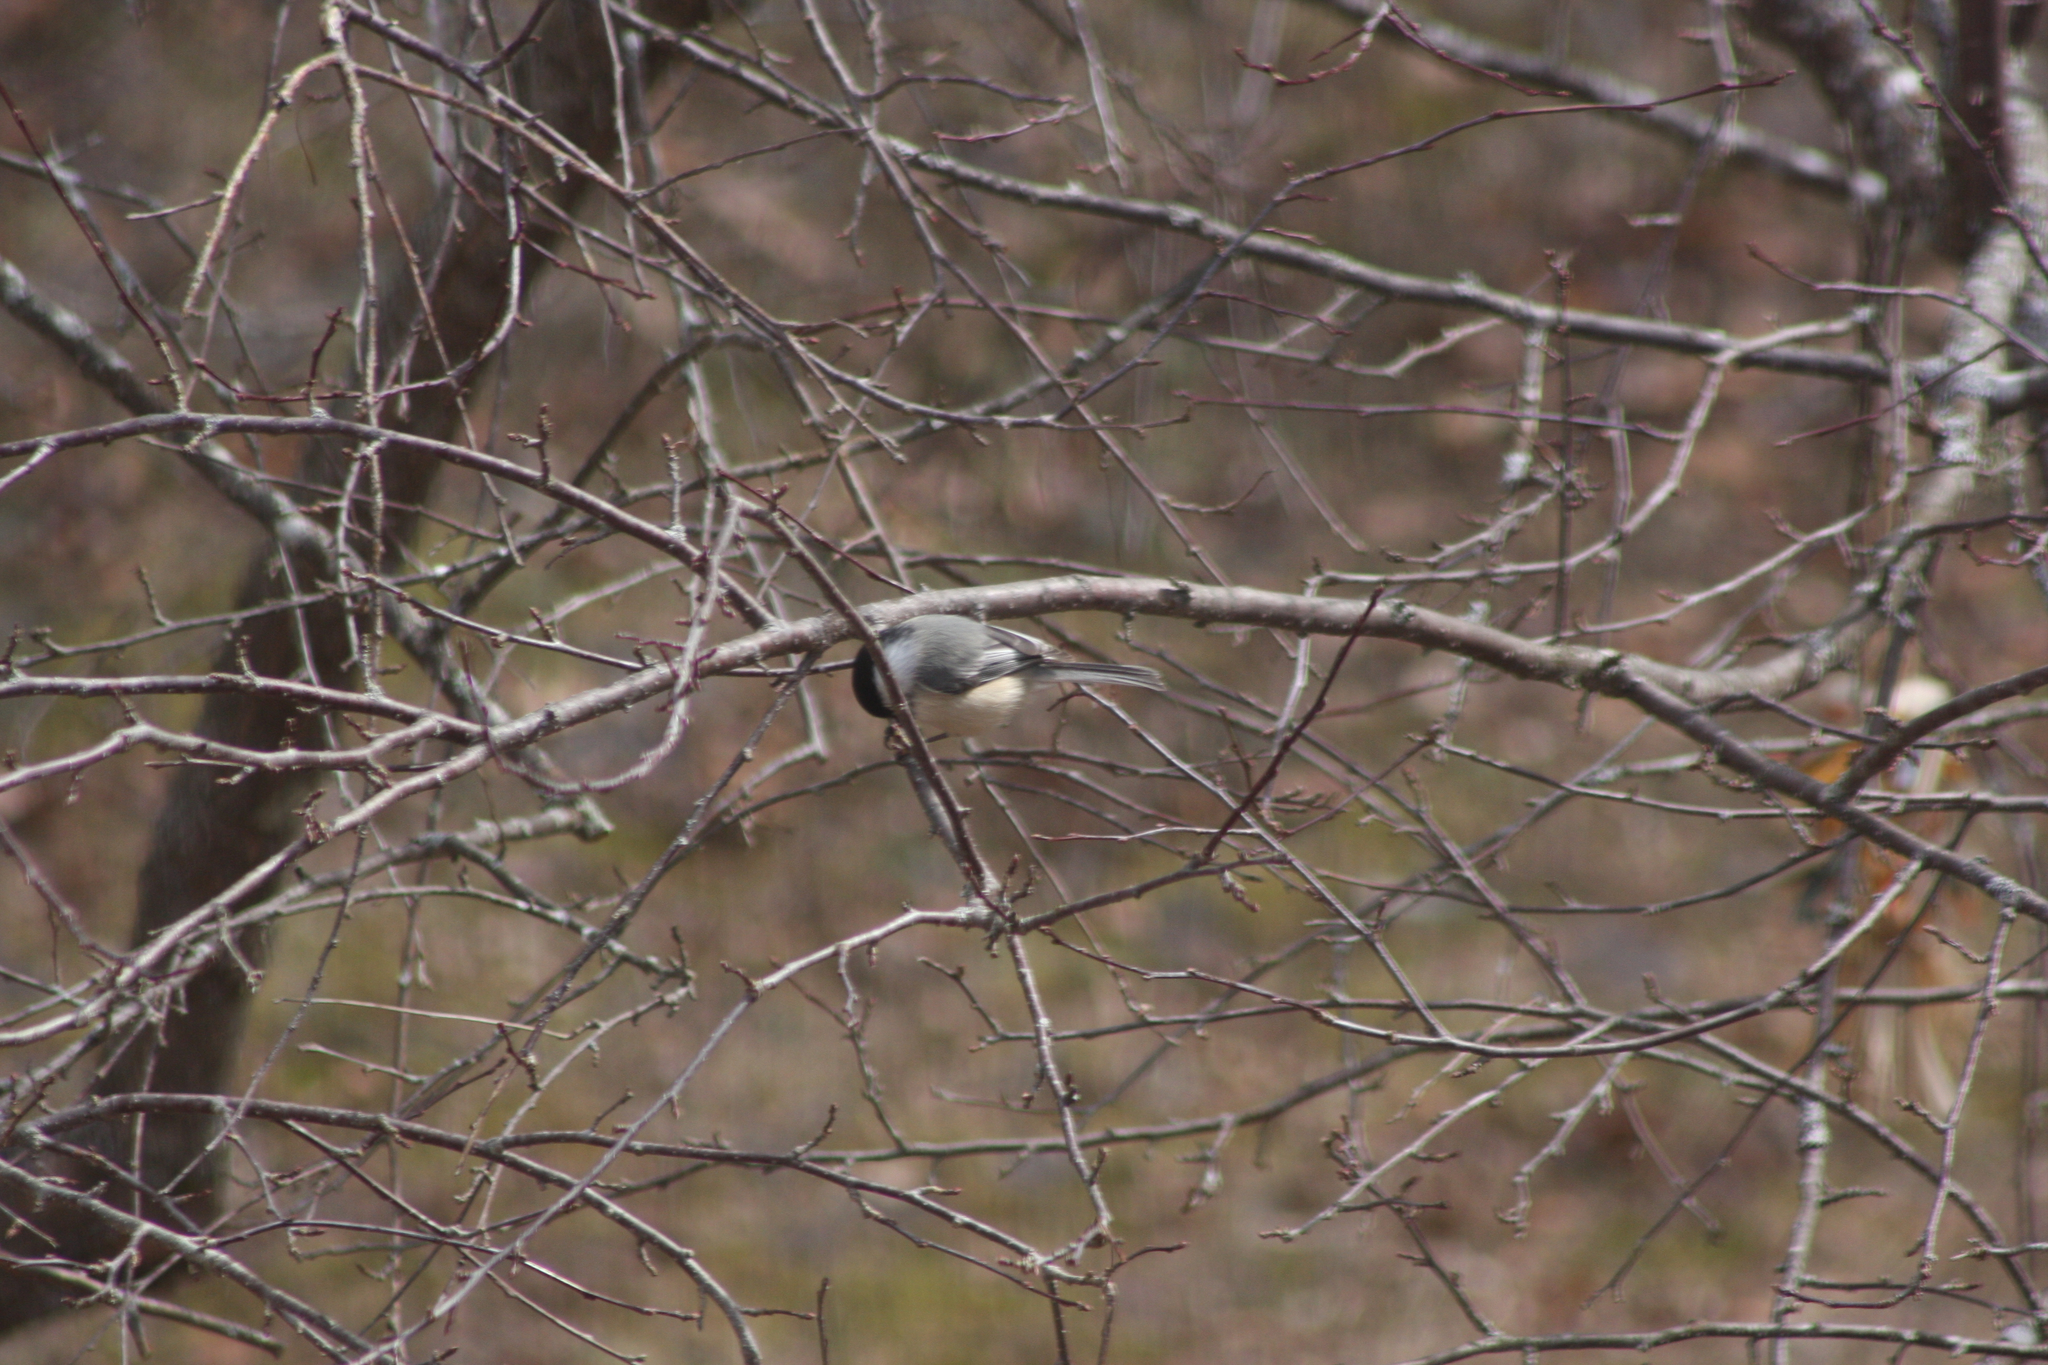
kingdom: Animalia
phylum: Chordata
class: Aves
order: Passeriformes
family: Paridae
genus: Poecile
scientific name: Poecile atricapillus
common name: Black-capped chickadee
